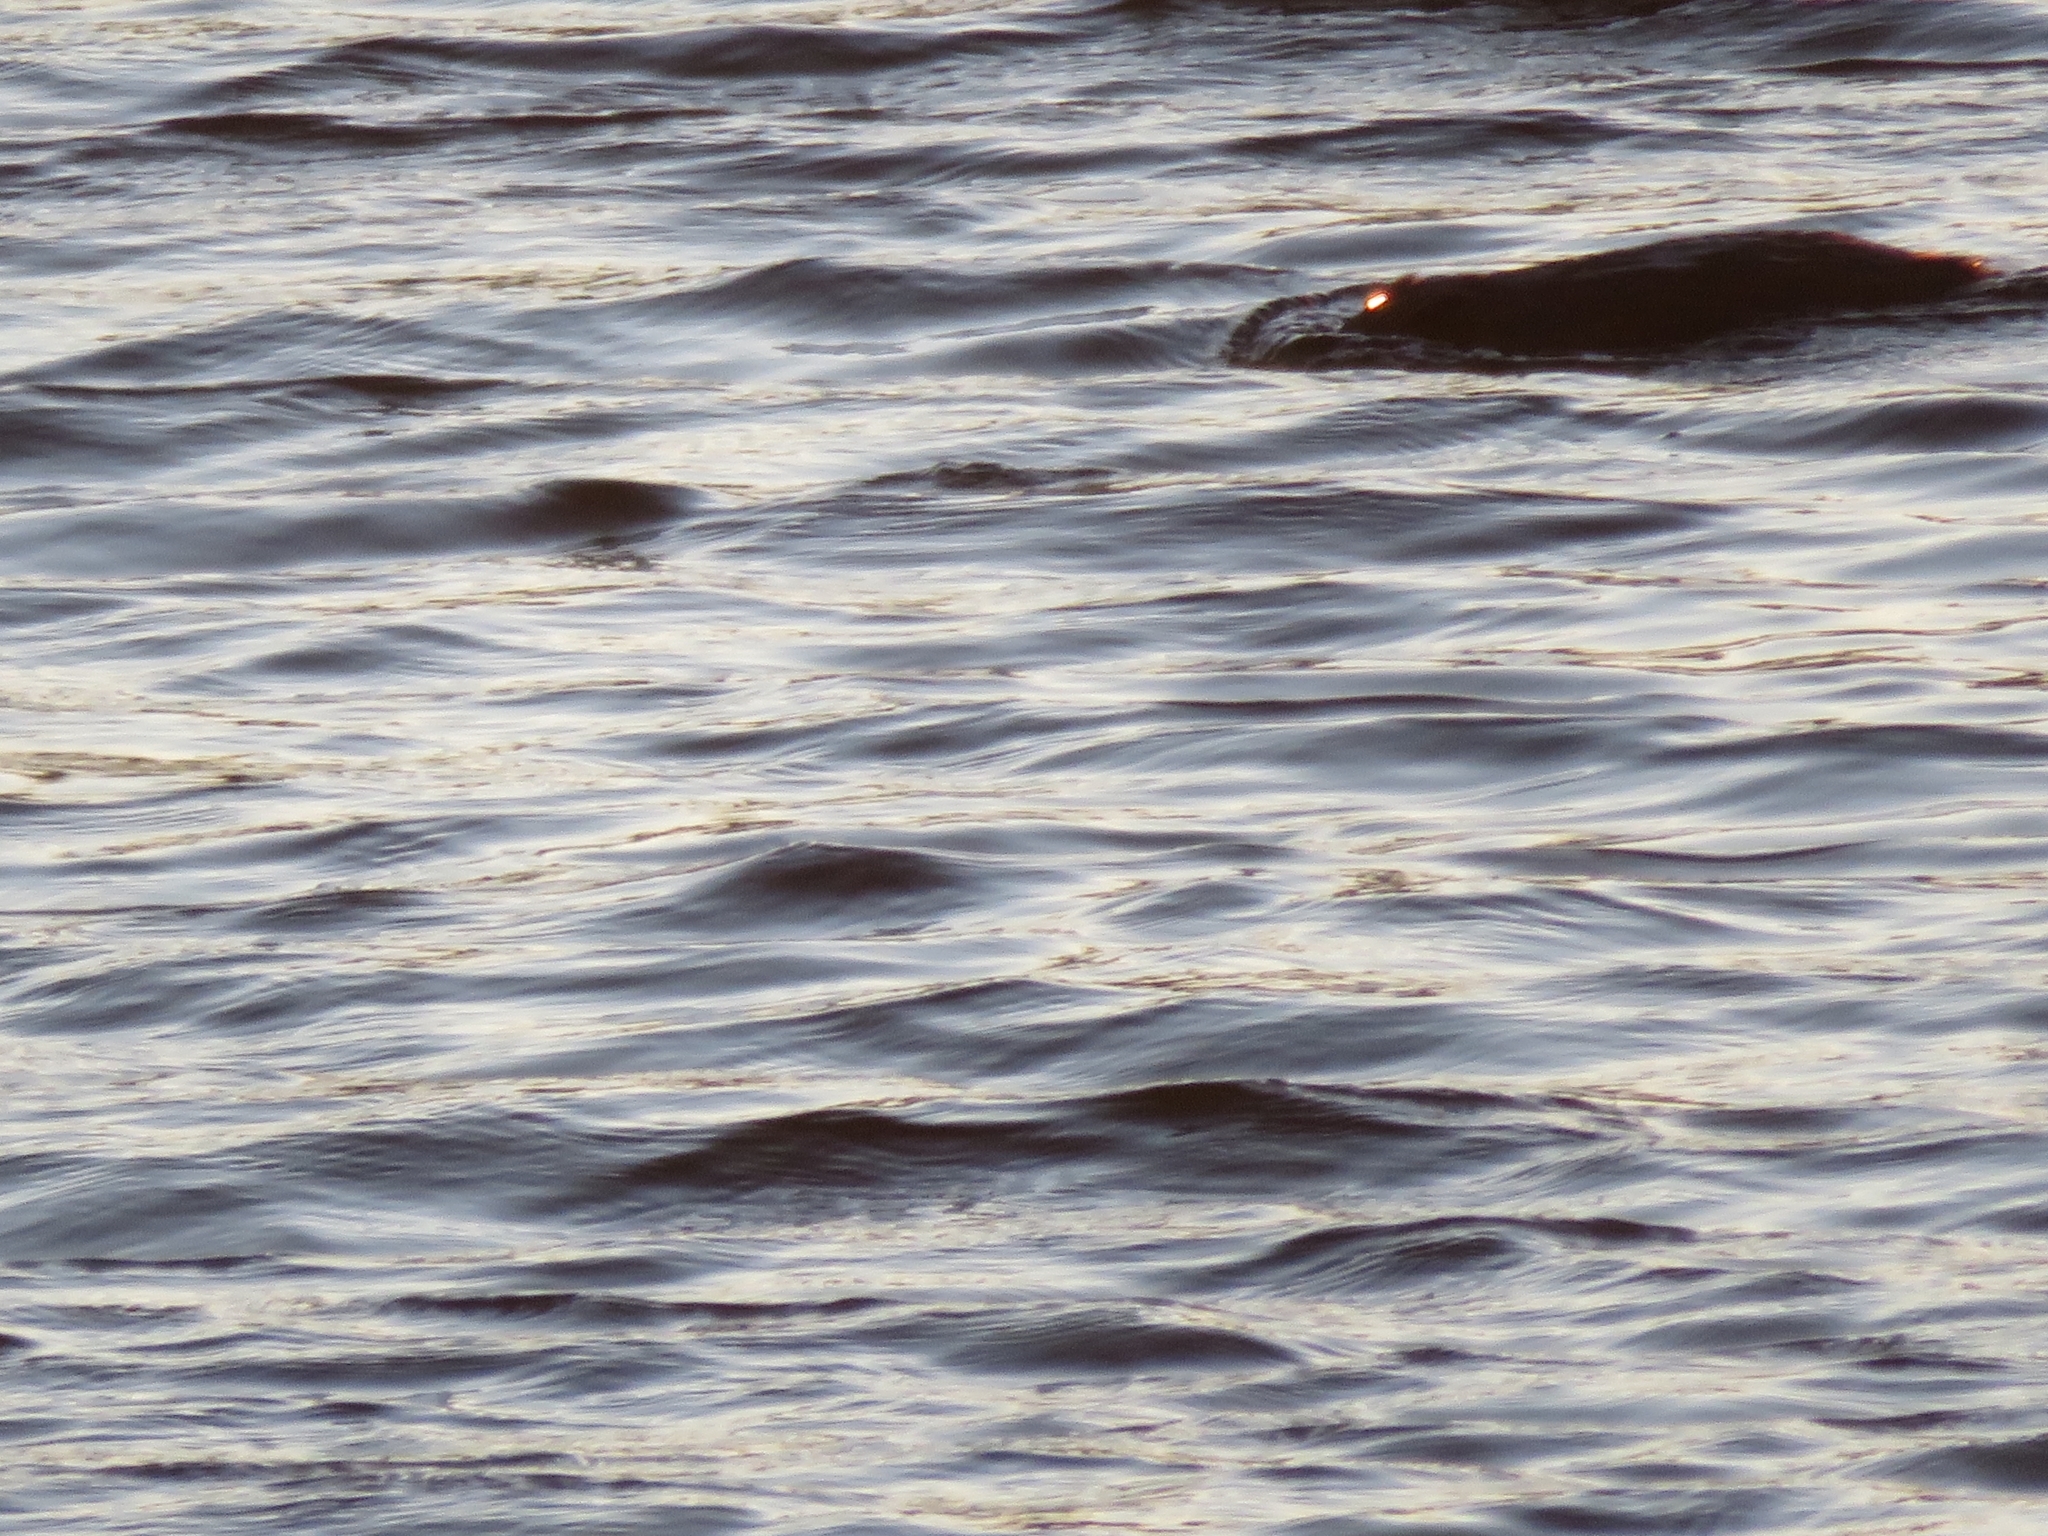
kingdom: Animalia
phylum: Chordata
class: Mammalia
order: Rodentia
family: Cricetidae
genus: Ondatra
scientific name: Ondatra zibethicus
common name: Muskrat
